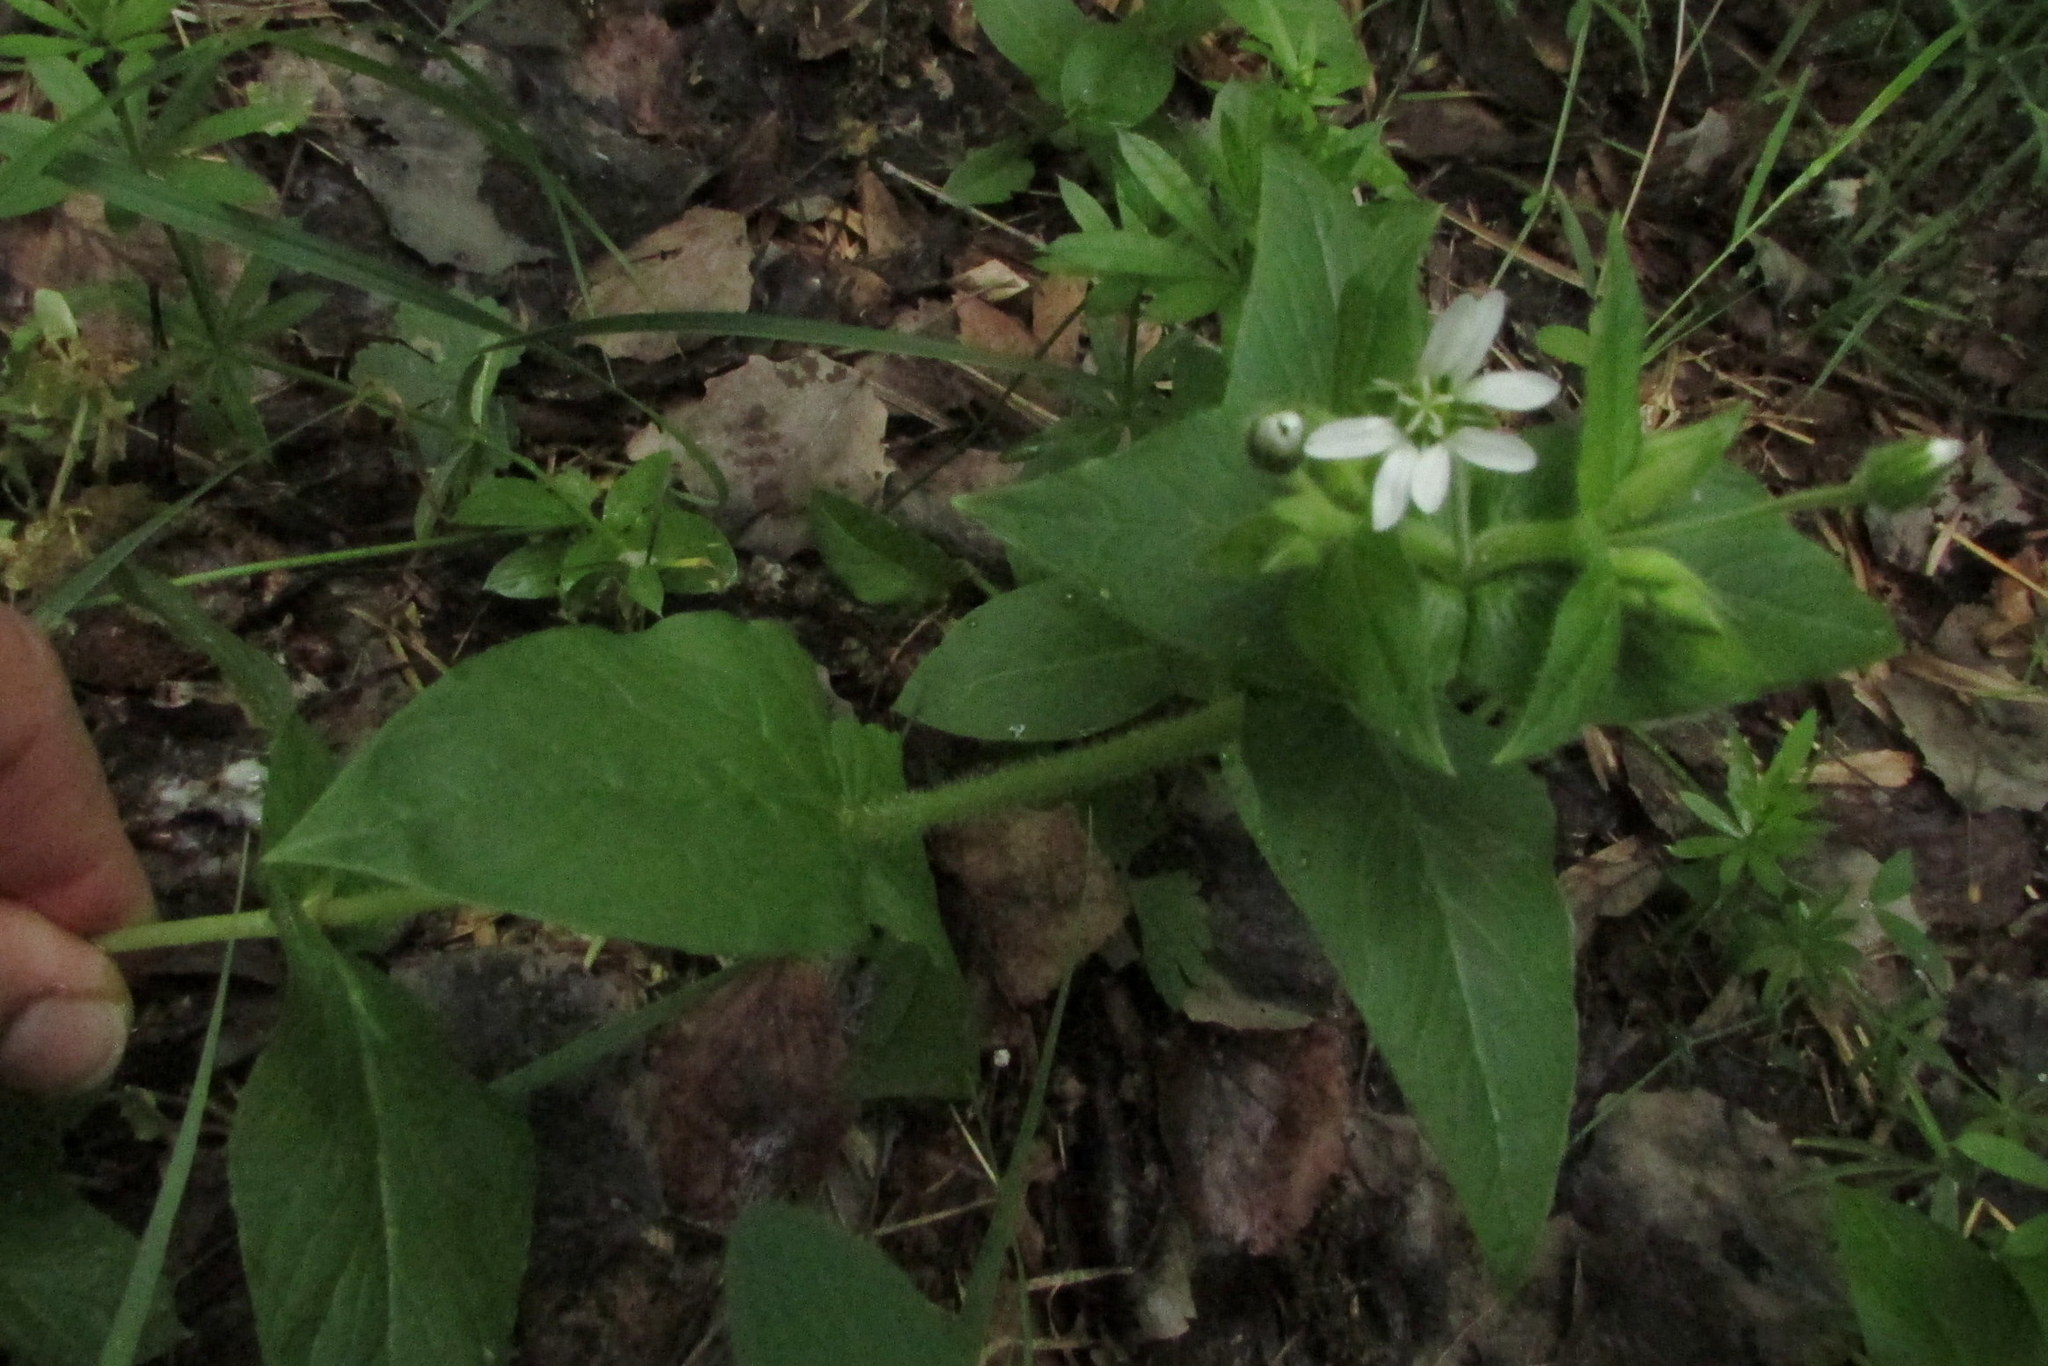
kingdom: Plantae
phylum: Tracheophyta
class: Magnoliopsida
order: Caryophyllales
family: Caryophyllaceae
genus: Stellaria
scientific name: Stellaria aquatica
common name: Water chickweed
